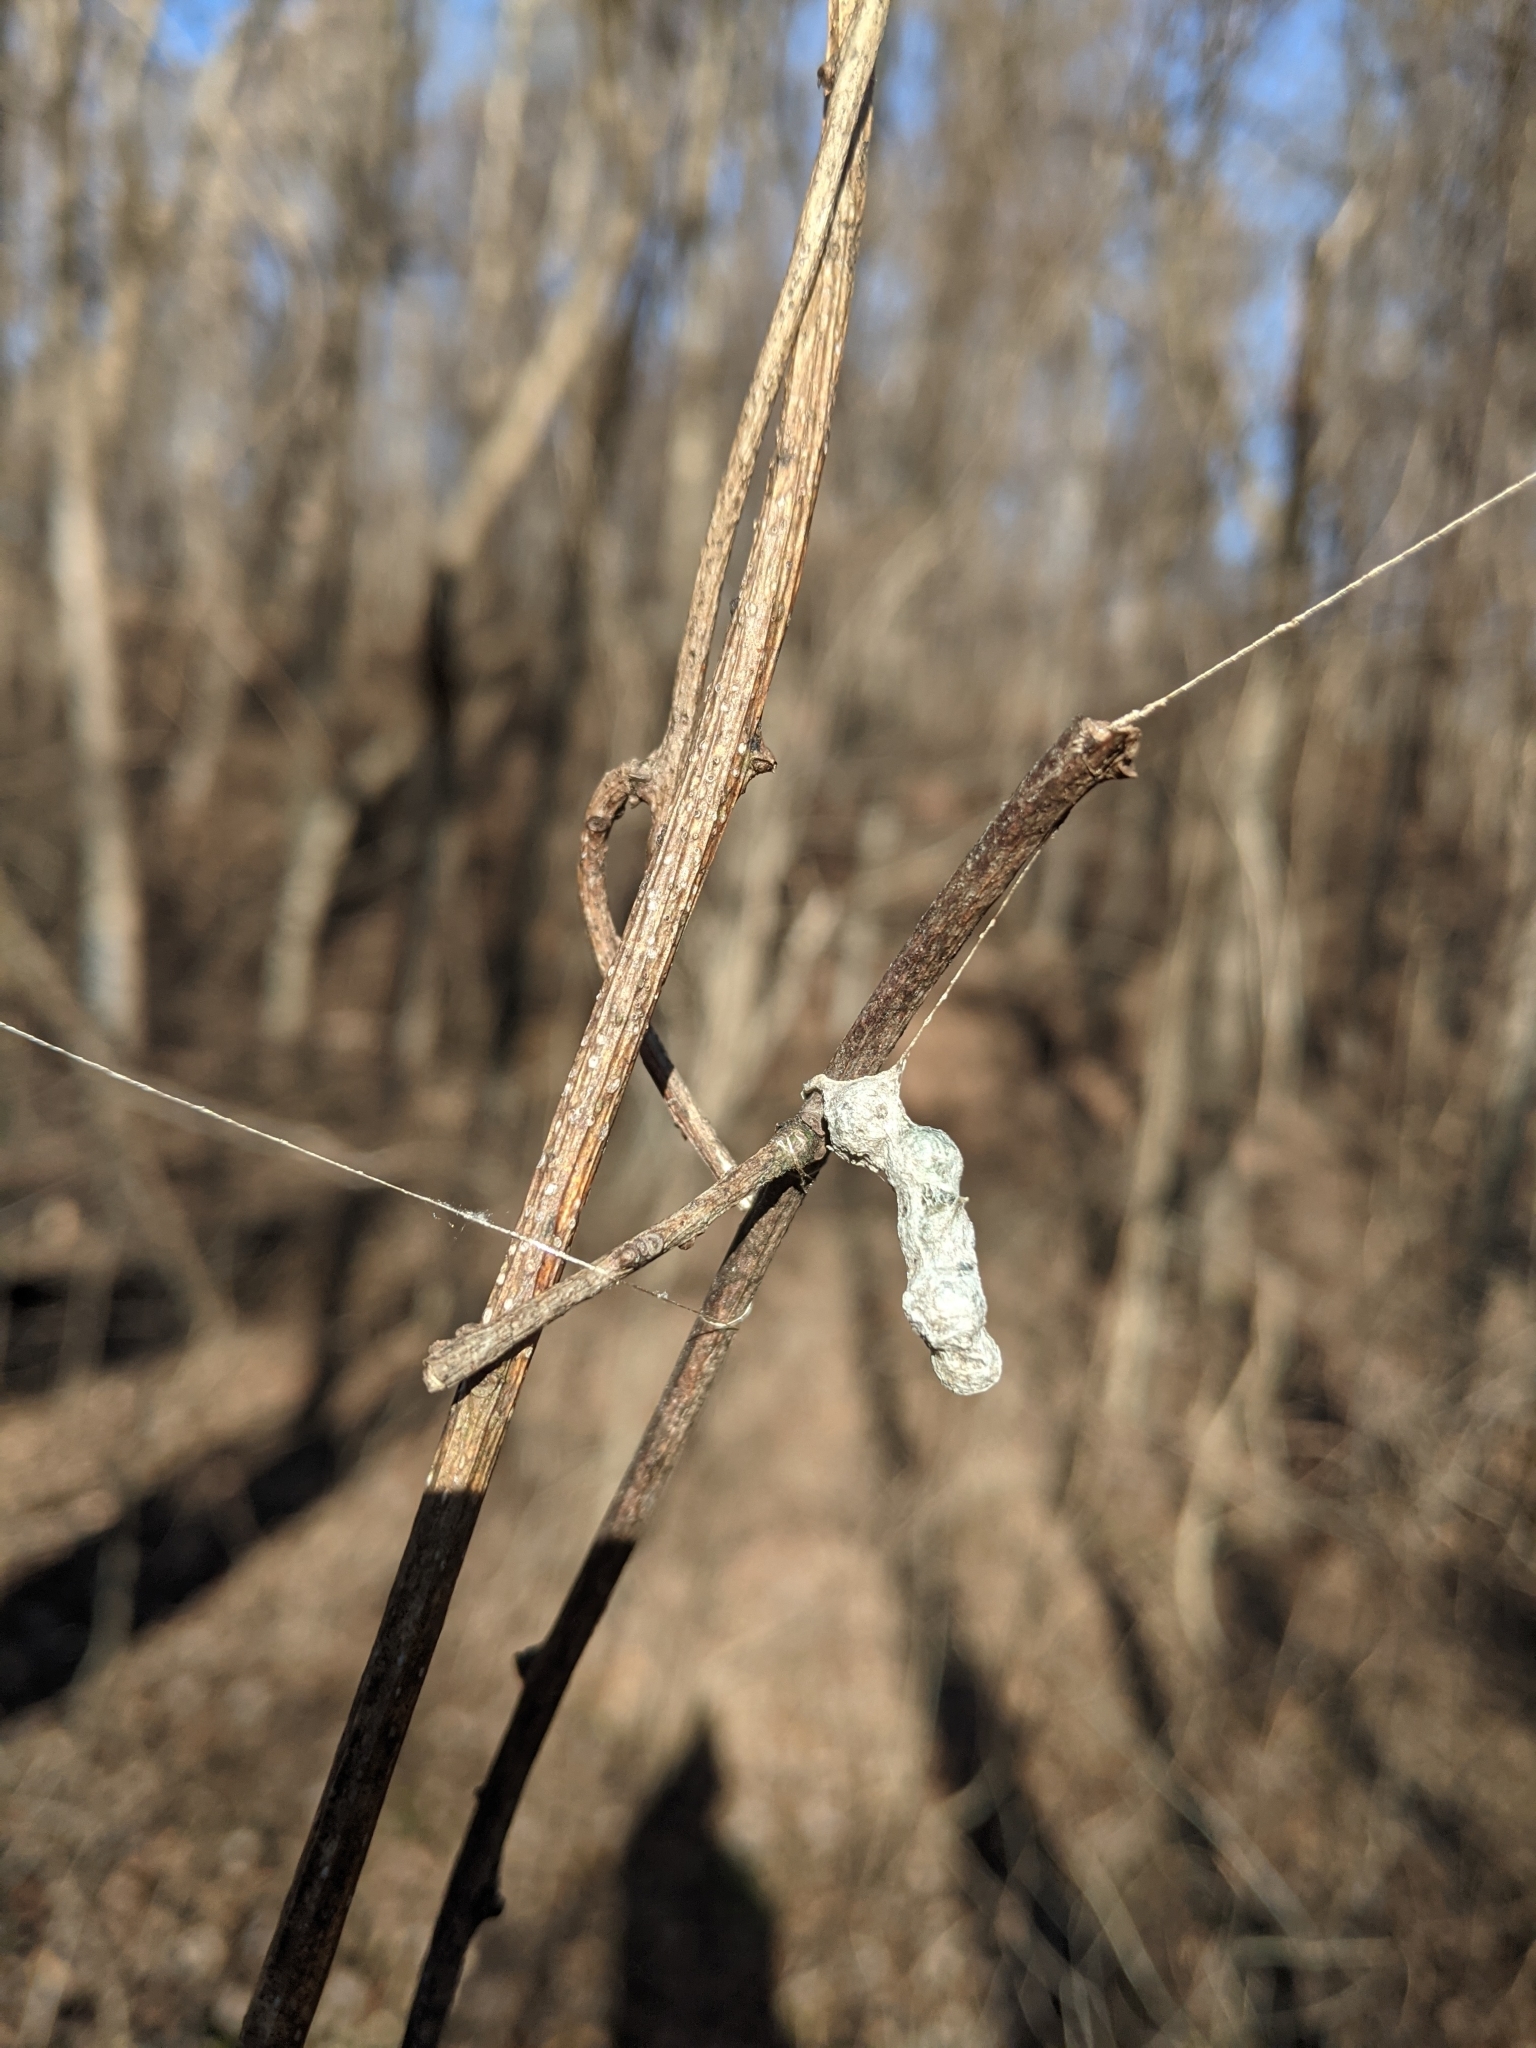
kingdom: Animalia
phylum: Arthropoda
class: Arachnida
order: Araneae
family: Araneidae
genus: Mecynogea
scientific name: Mecynogea lemniscata
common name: Orb weavers
